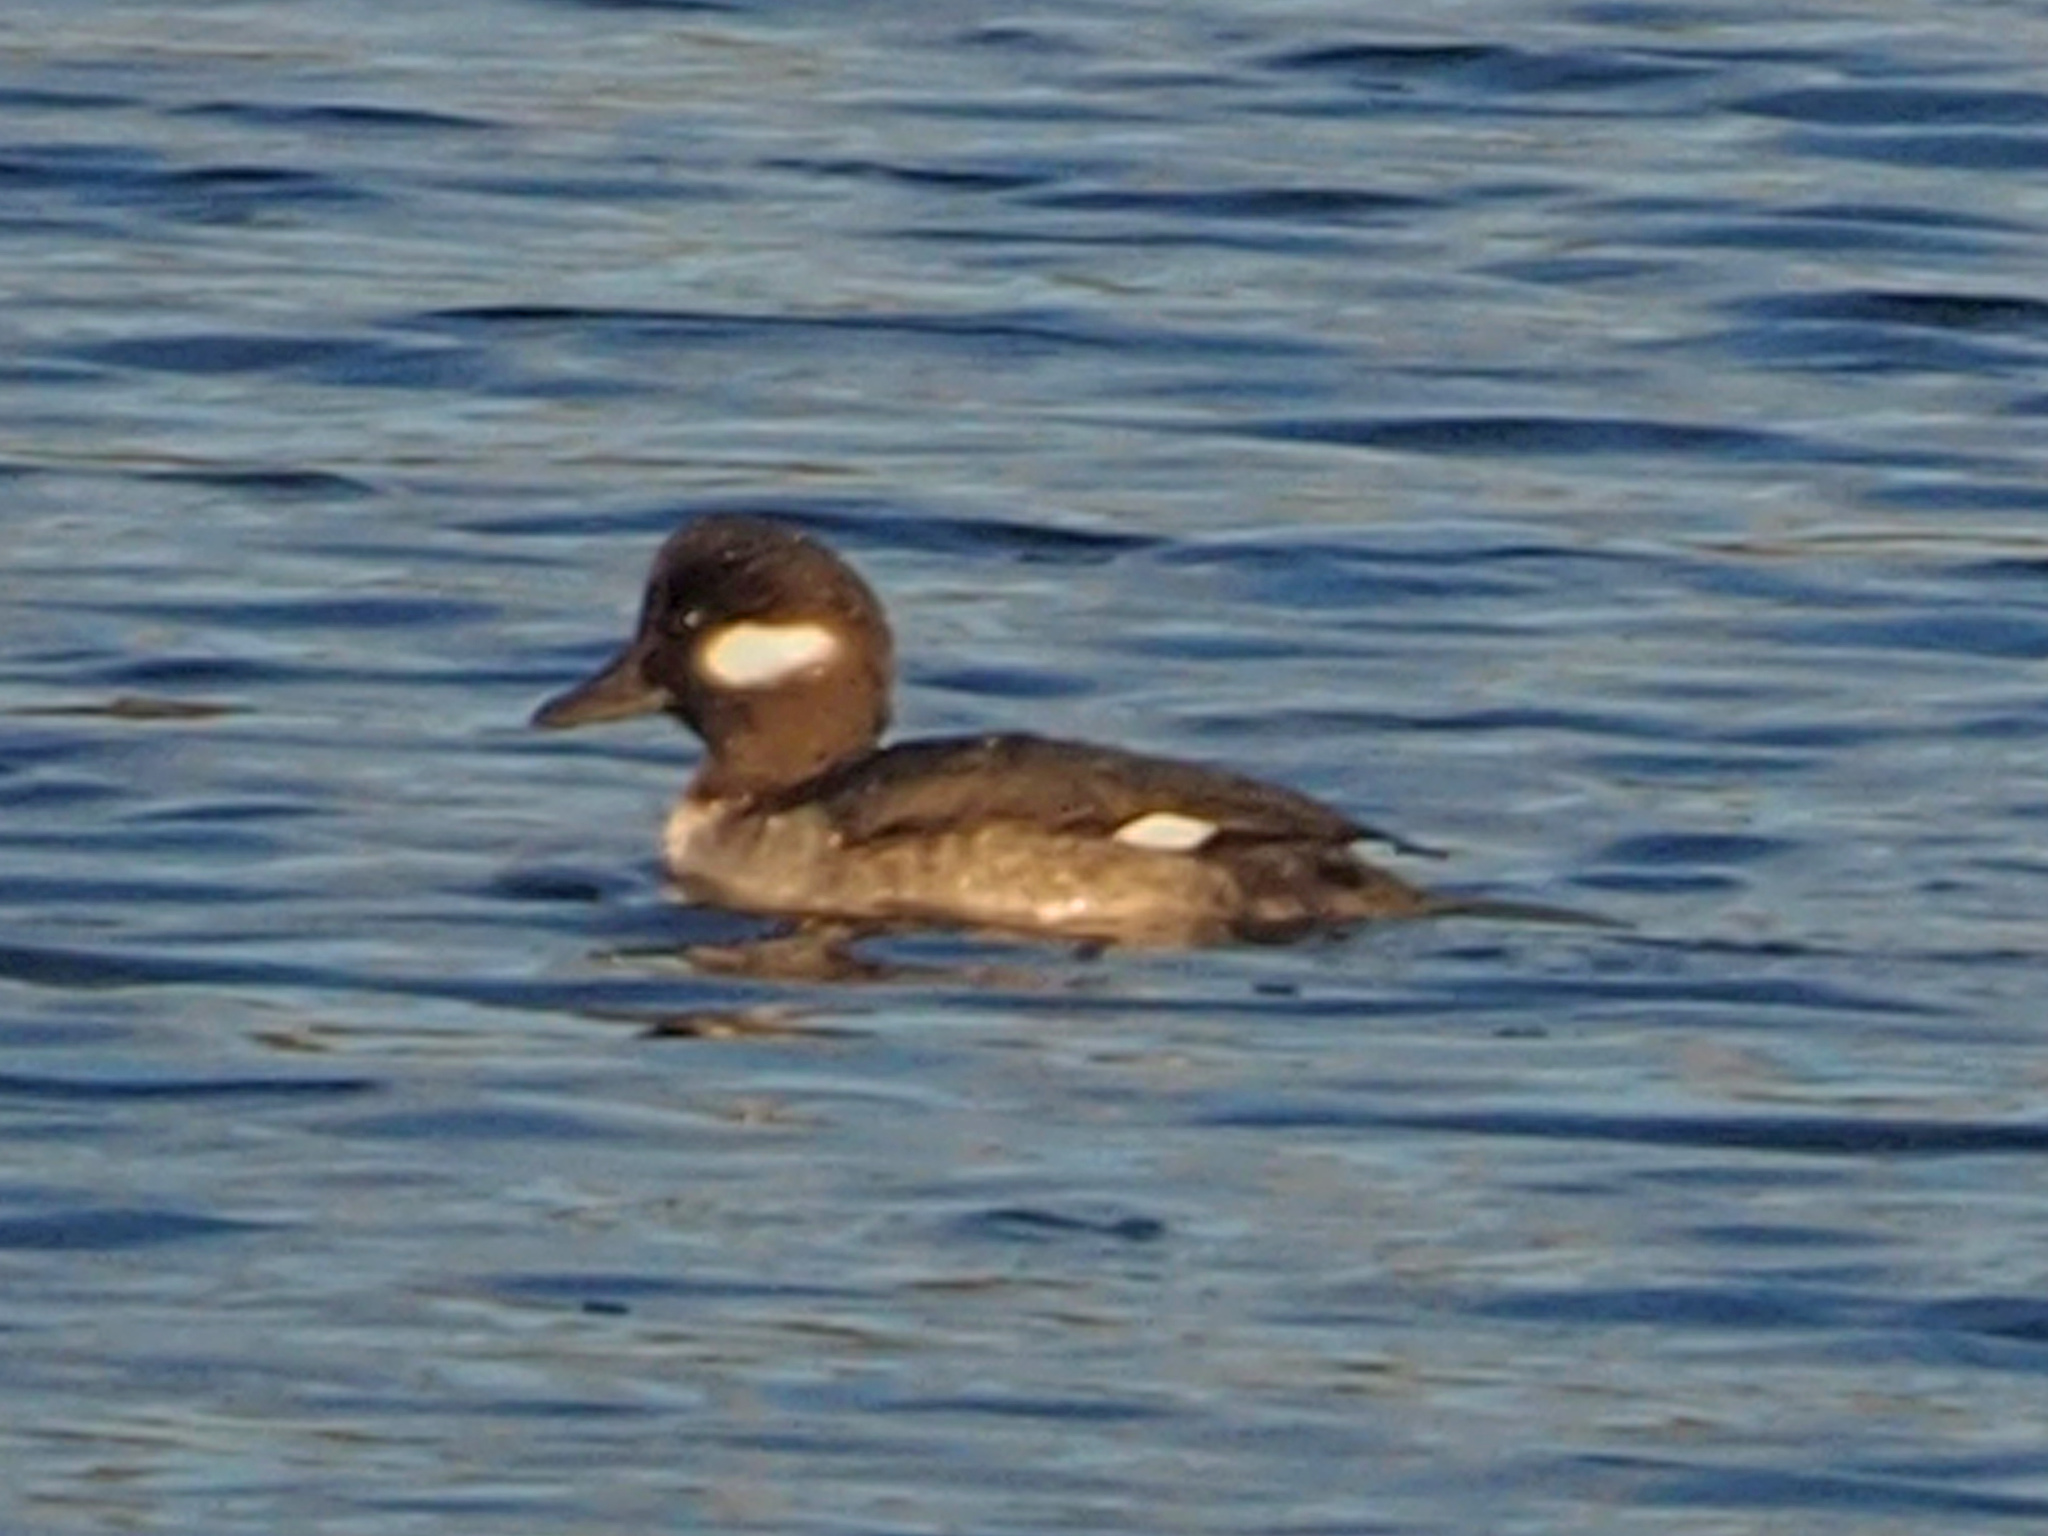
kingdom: Animalia
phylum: Chordata
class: Aves
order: Anseriformes
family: Anatidae
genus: Bucephala
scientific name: Bucephala albeola
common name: Bufflehead
